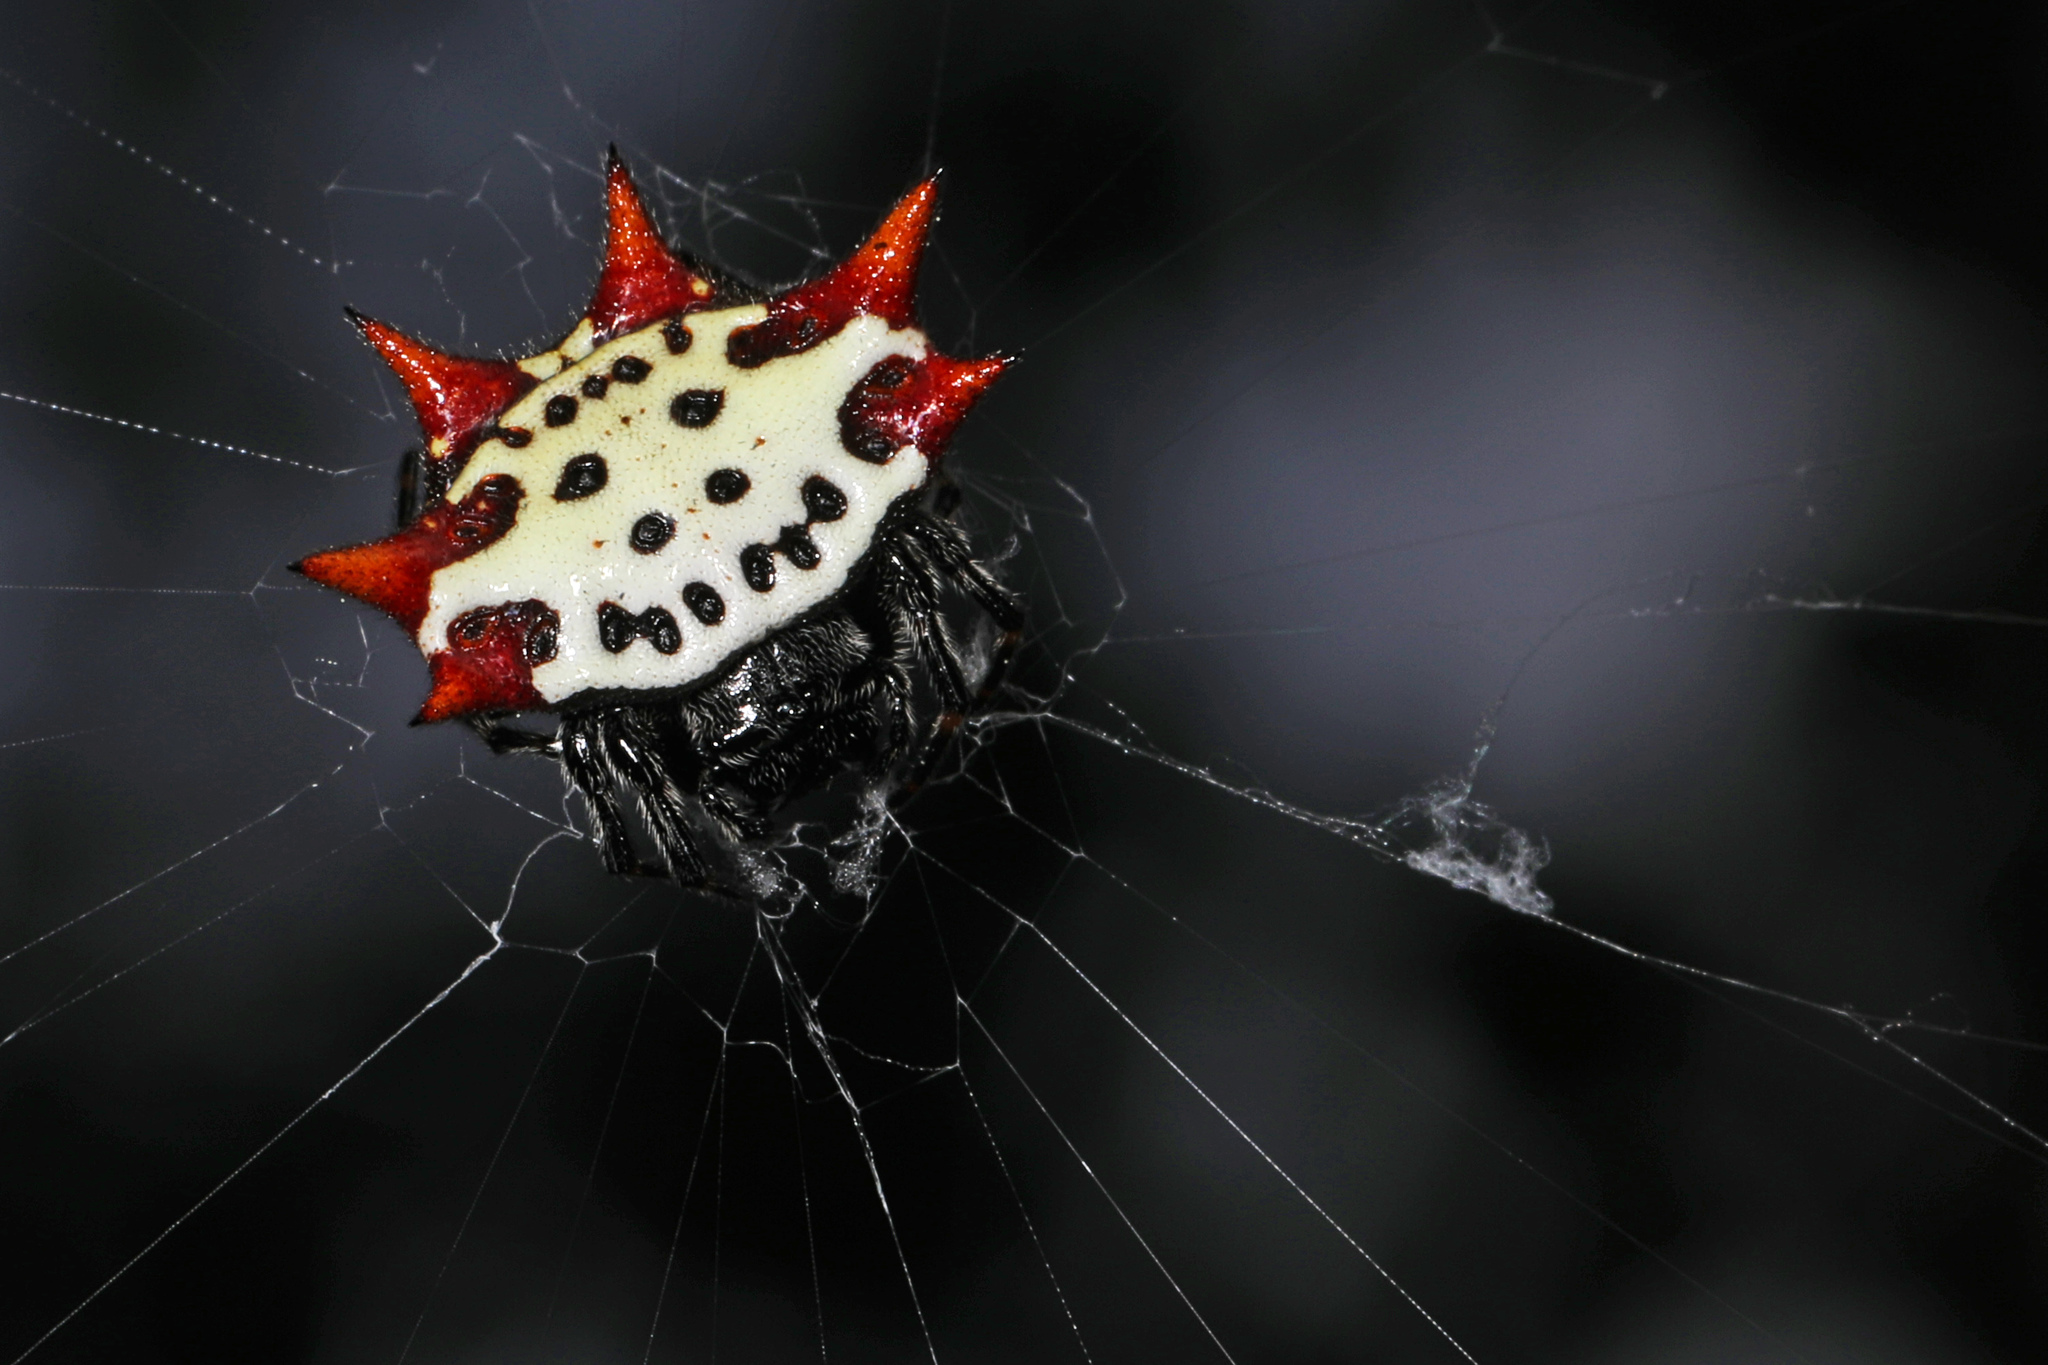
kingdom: Animalia
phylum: Arthropoda
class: Arachnida
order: Araneae
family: Araneidae
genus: Gasteracantha
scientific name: Gasteracantha cancriformis
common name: Orb weavers
